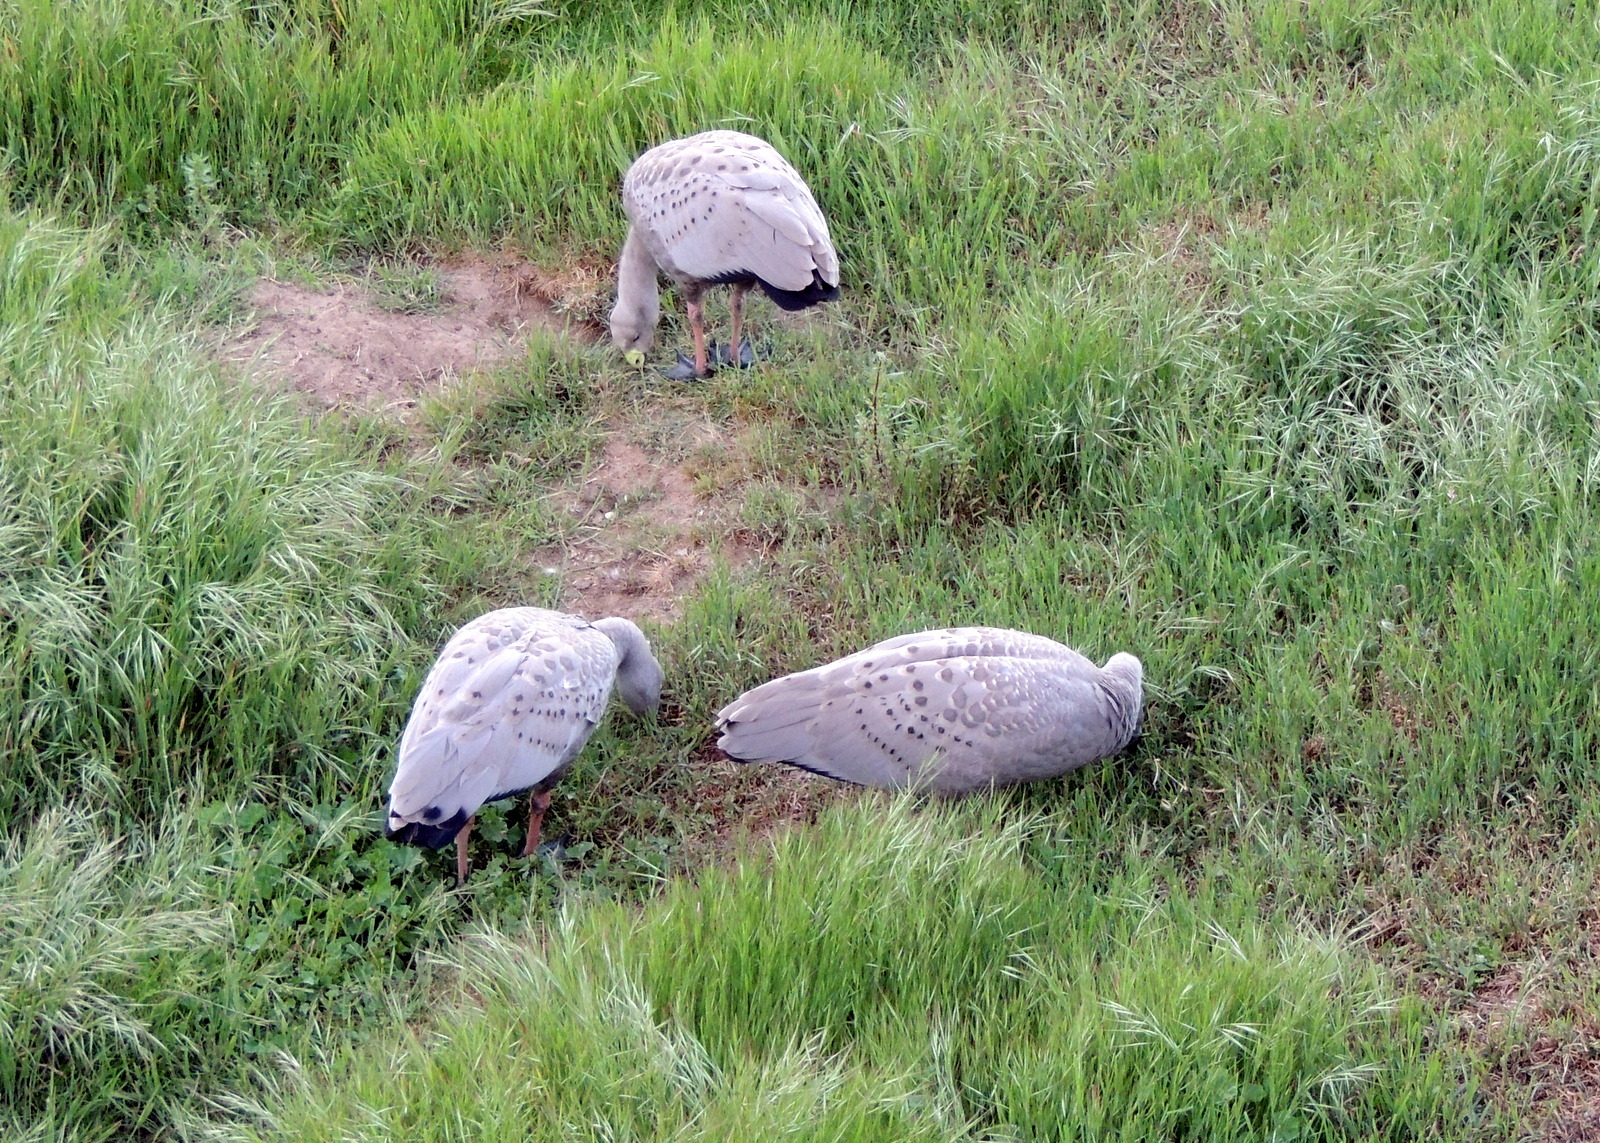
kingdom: Animalia
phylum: Chordata
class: Aves
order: Anseriformes
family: Anatidae
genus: Cereopsis
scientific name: Cereopsis novaehollandiae
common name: Cape barren goose
